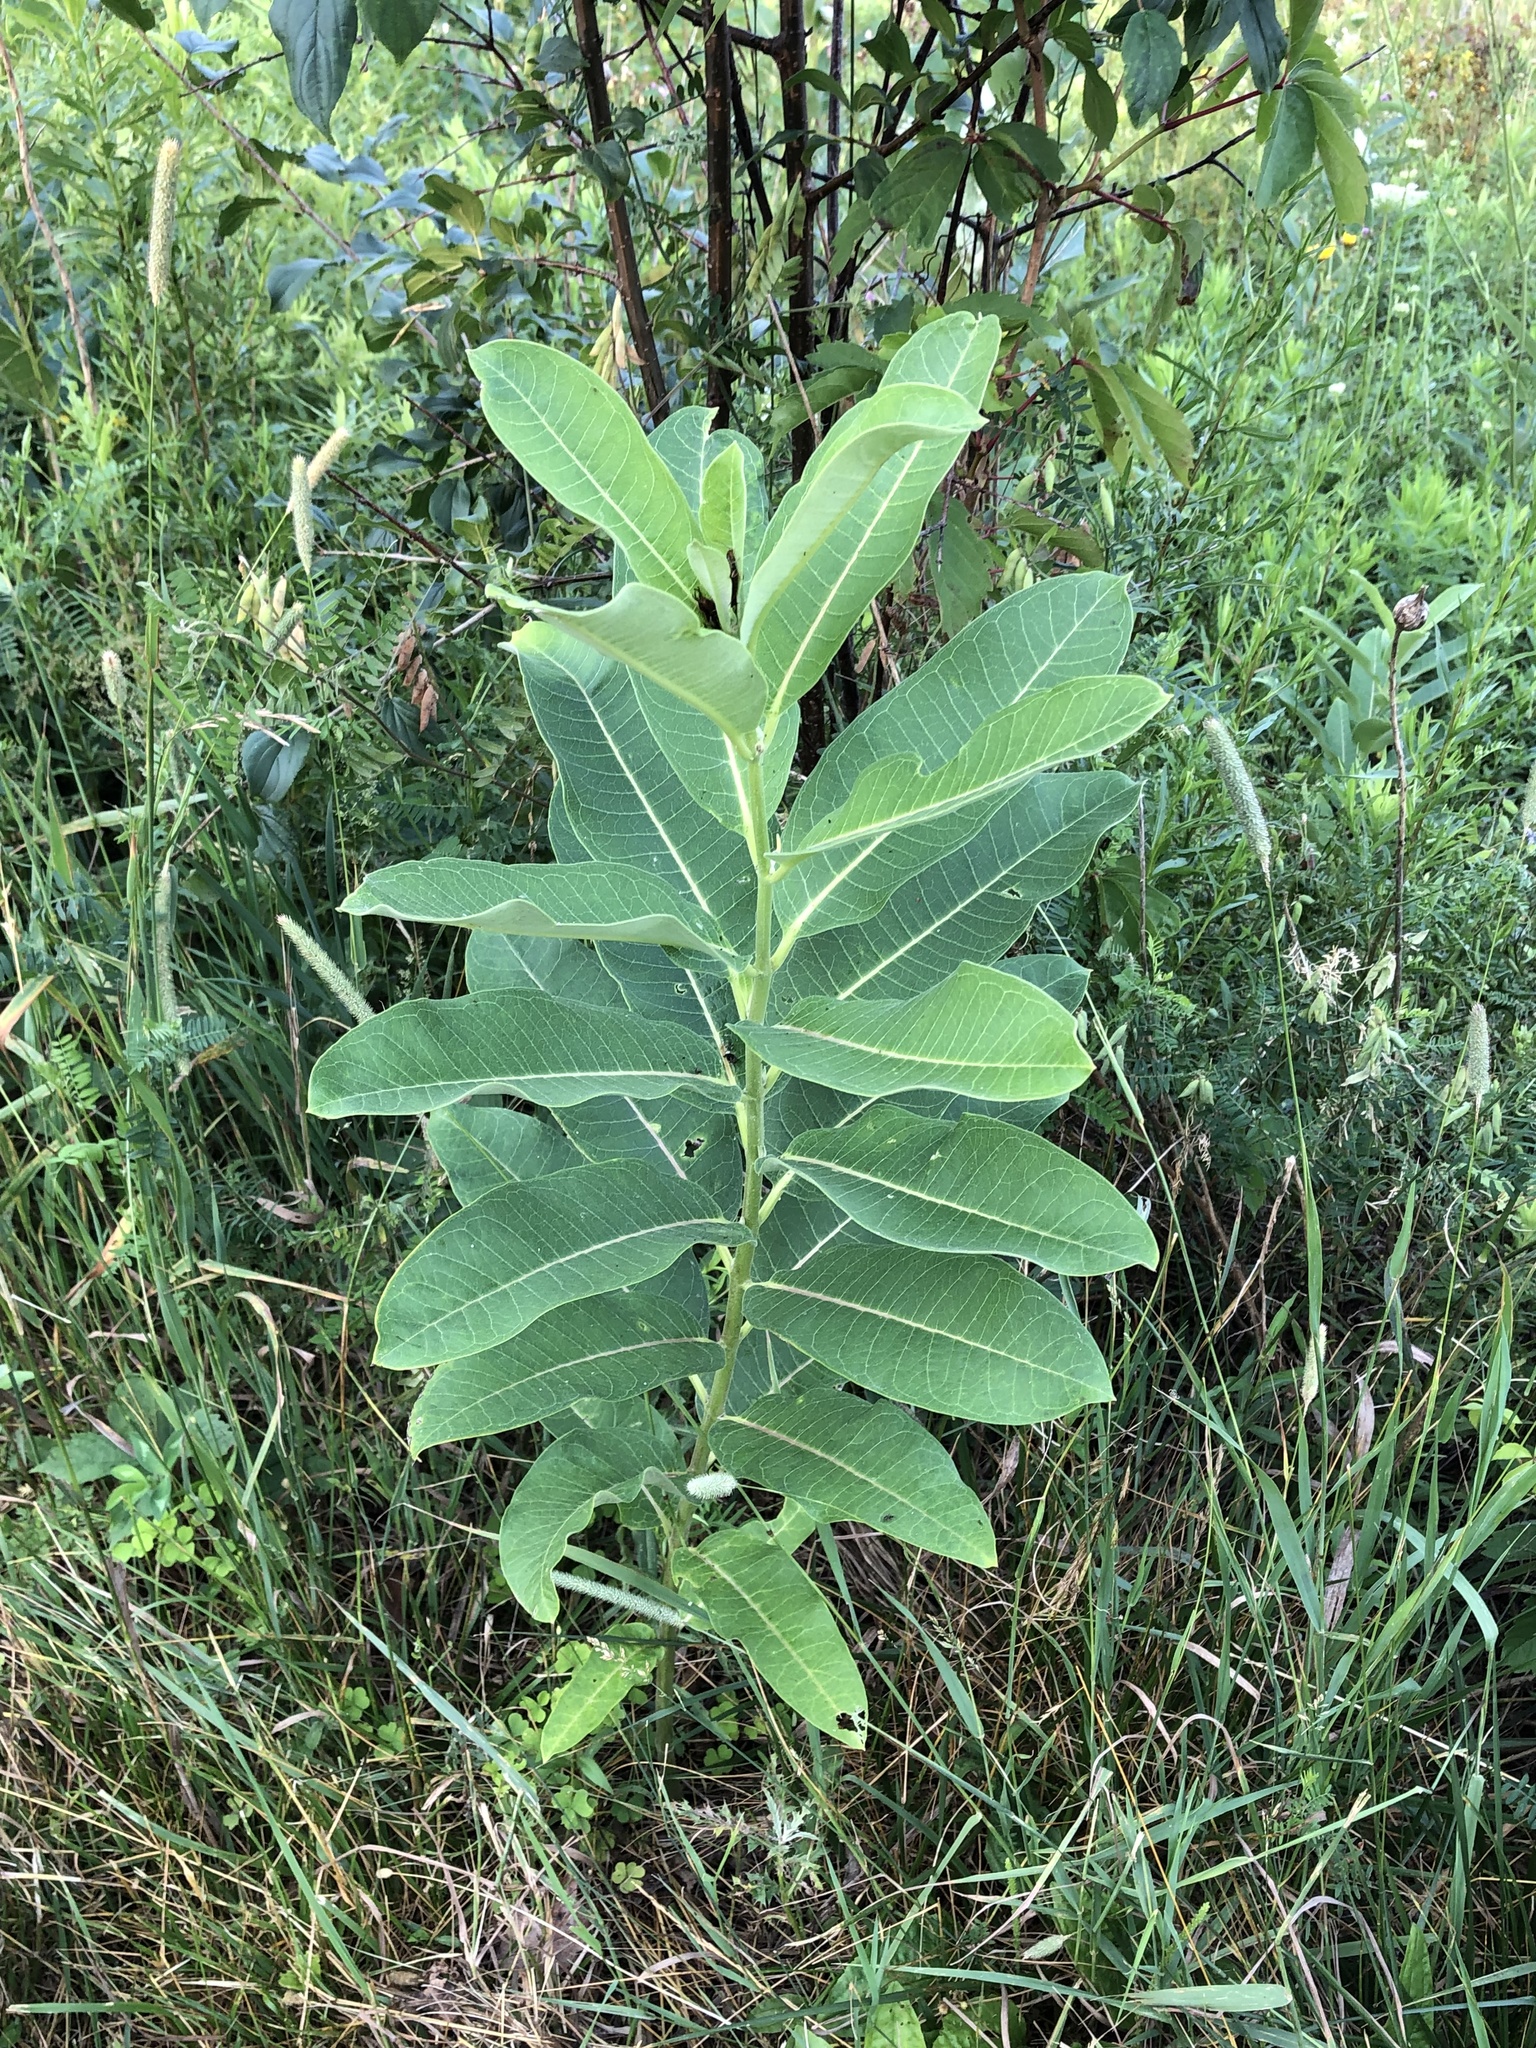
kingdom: Plantae
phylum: Tracheophyta
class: Magnoliopsida
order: Gentianales
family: Apocynaceae
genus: Asclepias
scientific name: Asclepias syriaca
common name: Common milkweed
